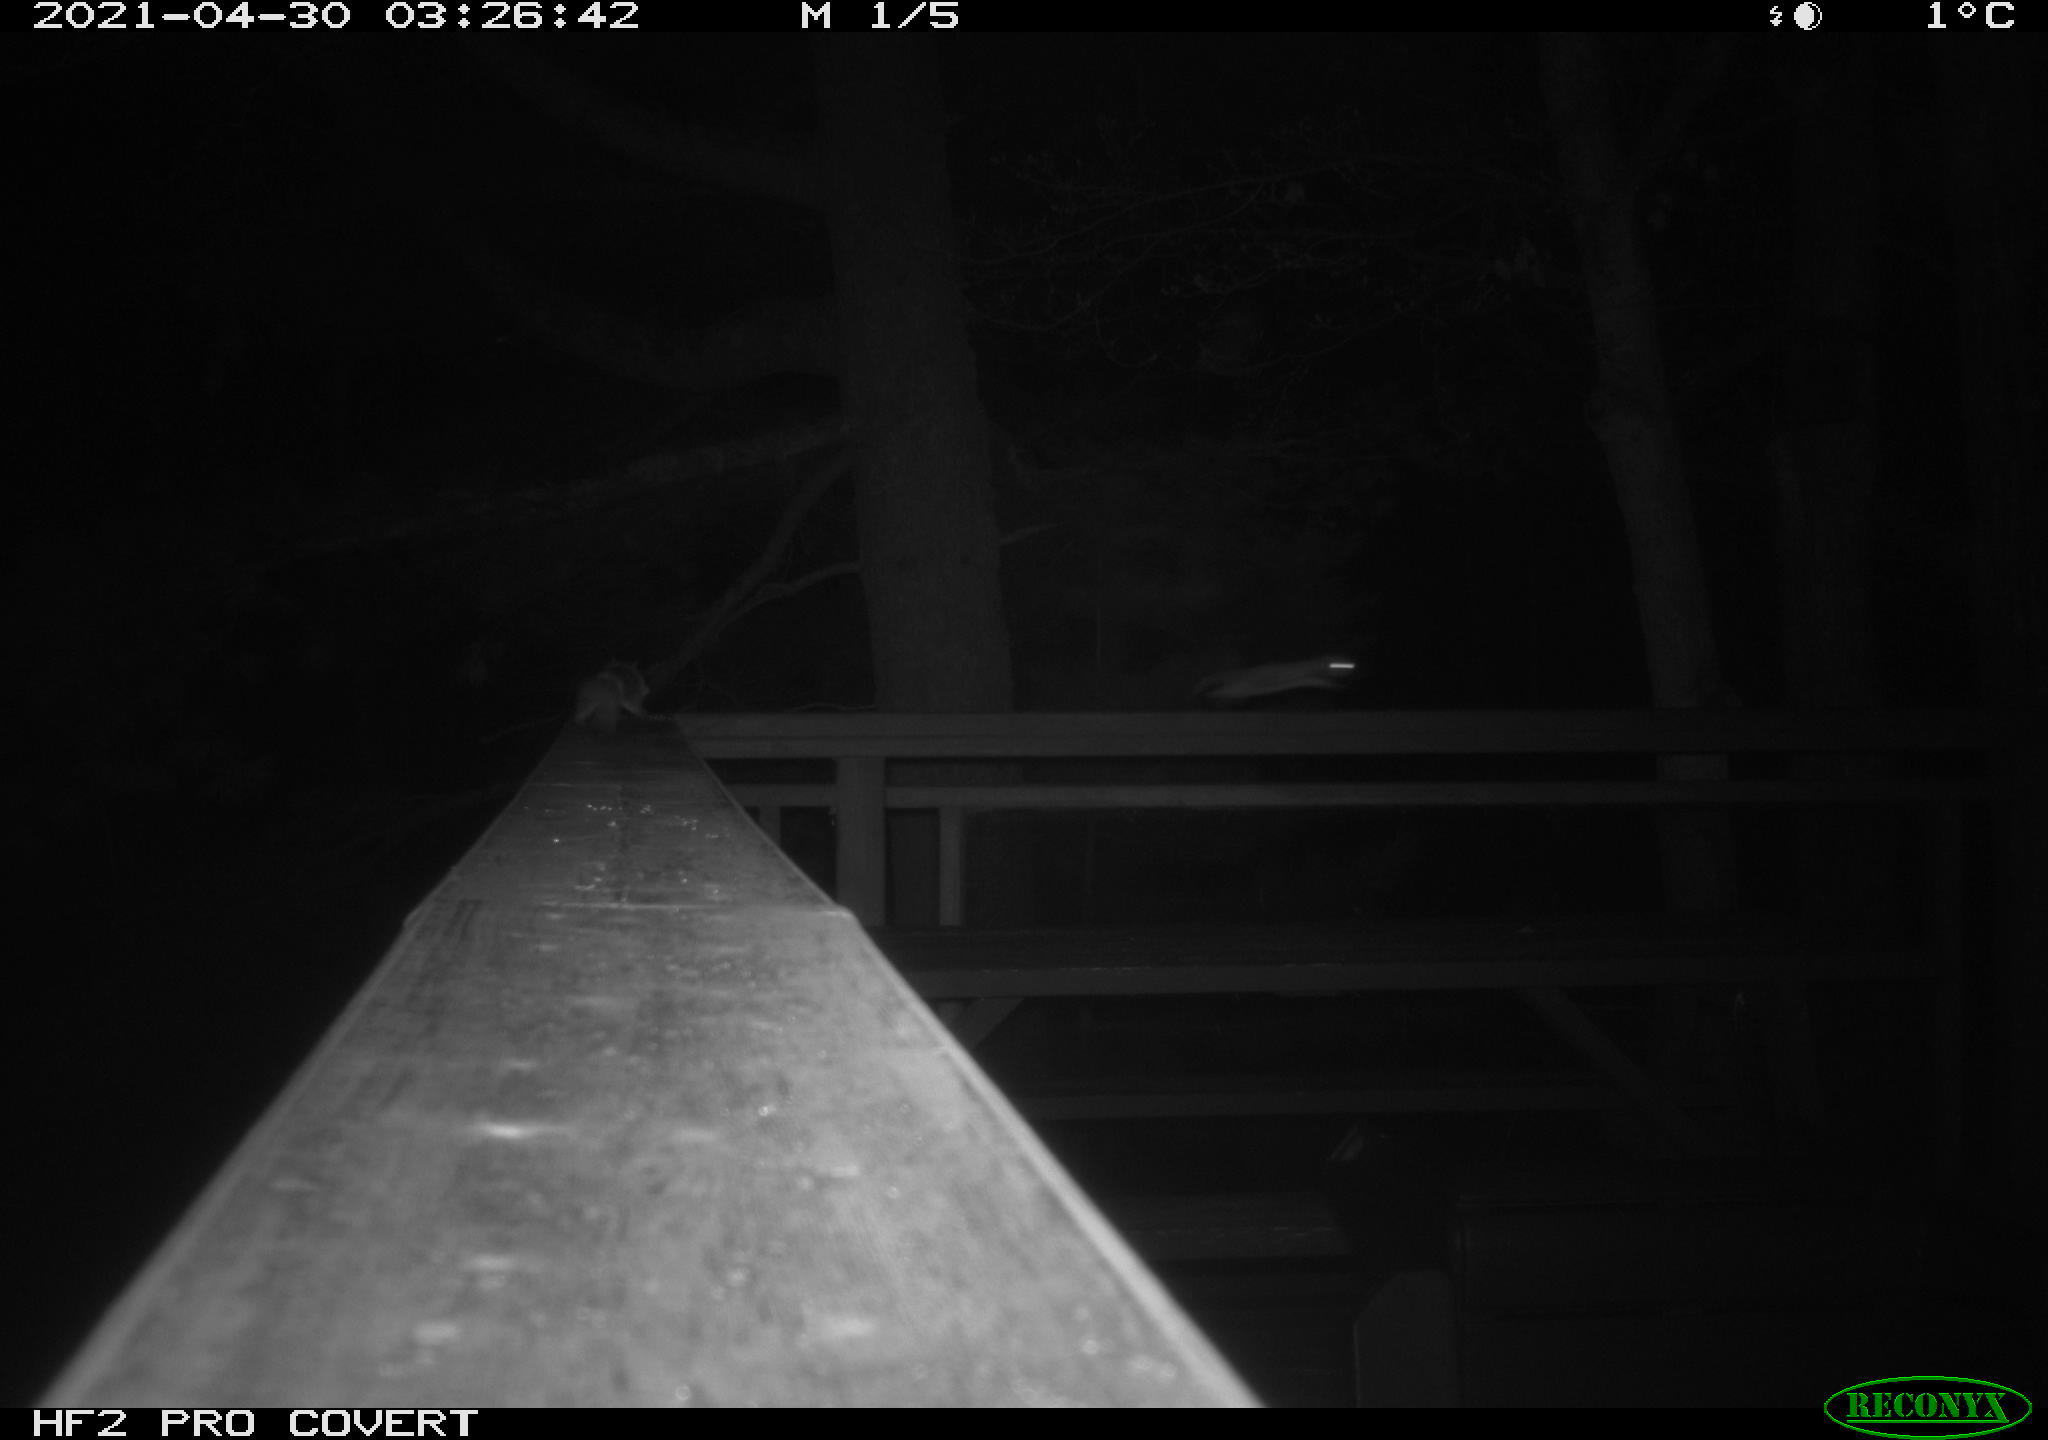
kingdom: Animalia
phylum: Chordata
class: Mammalia
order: Rodentia
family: Sciuridae
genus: Glaucomys
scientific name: Glaucomys sabrinus
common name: Northern flying squirrel
